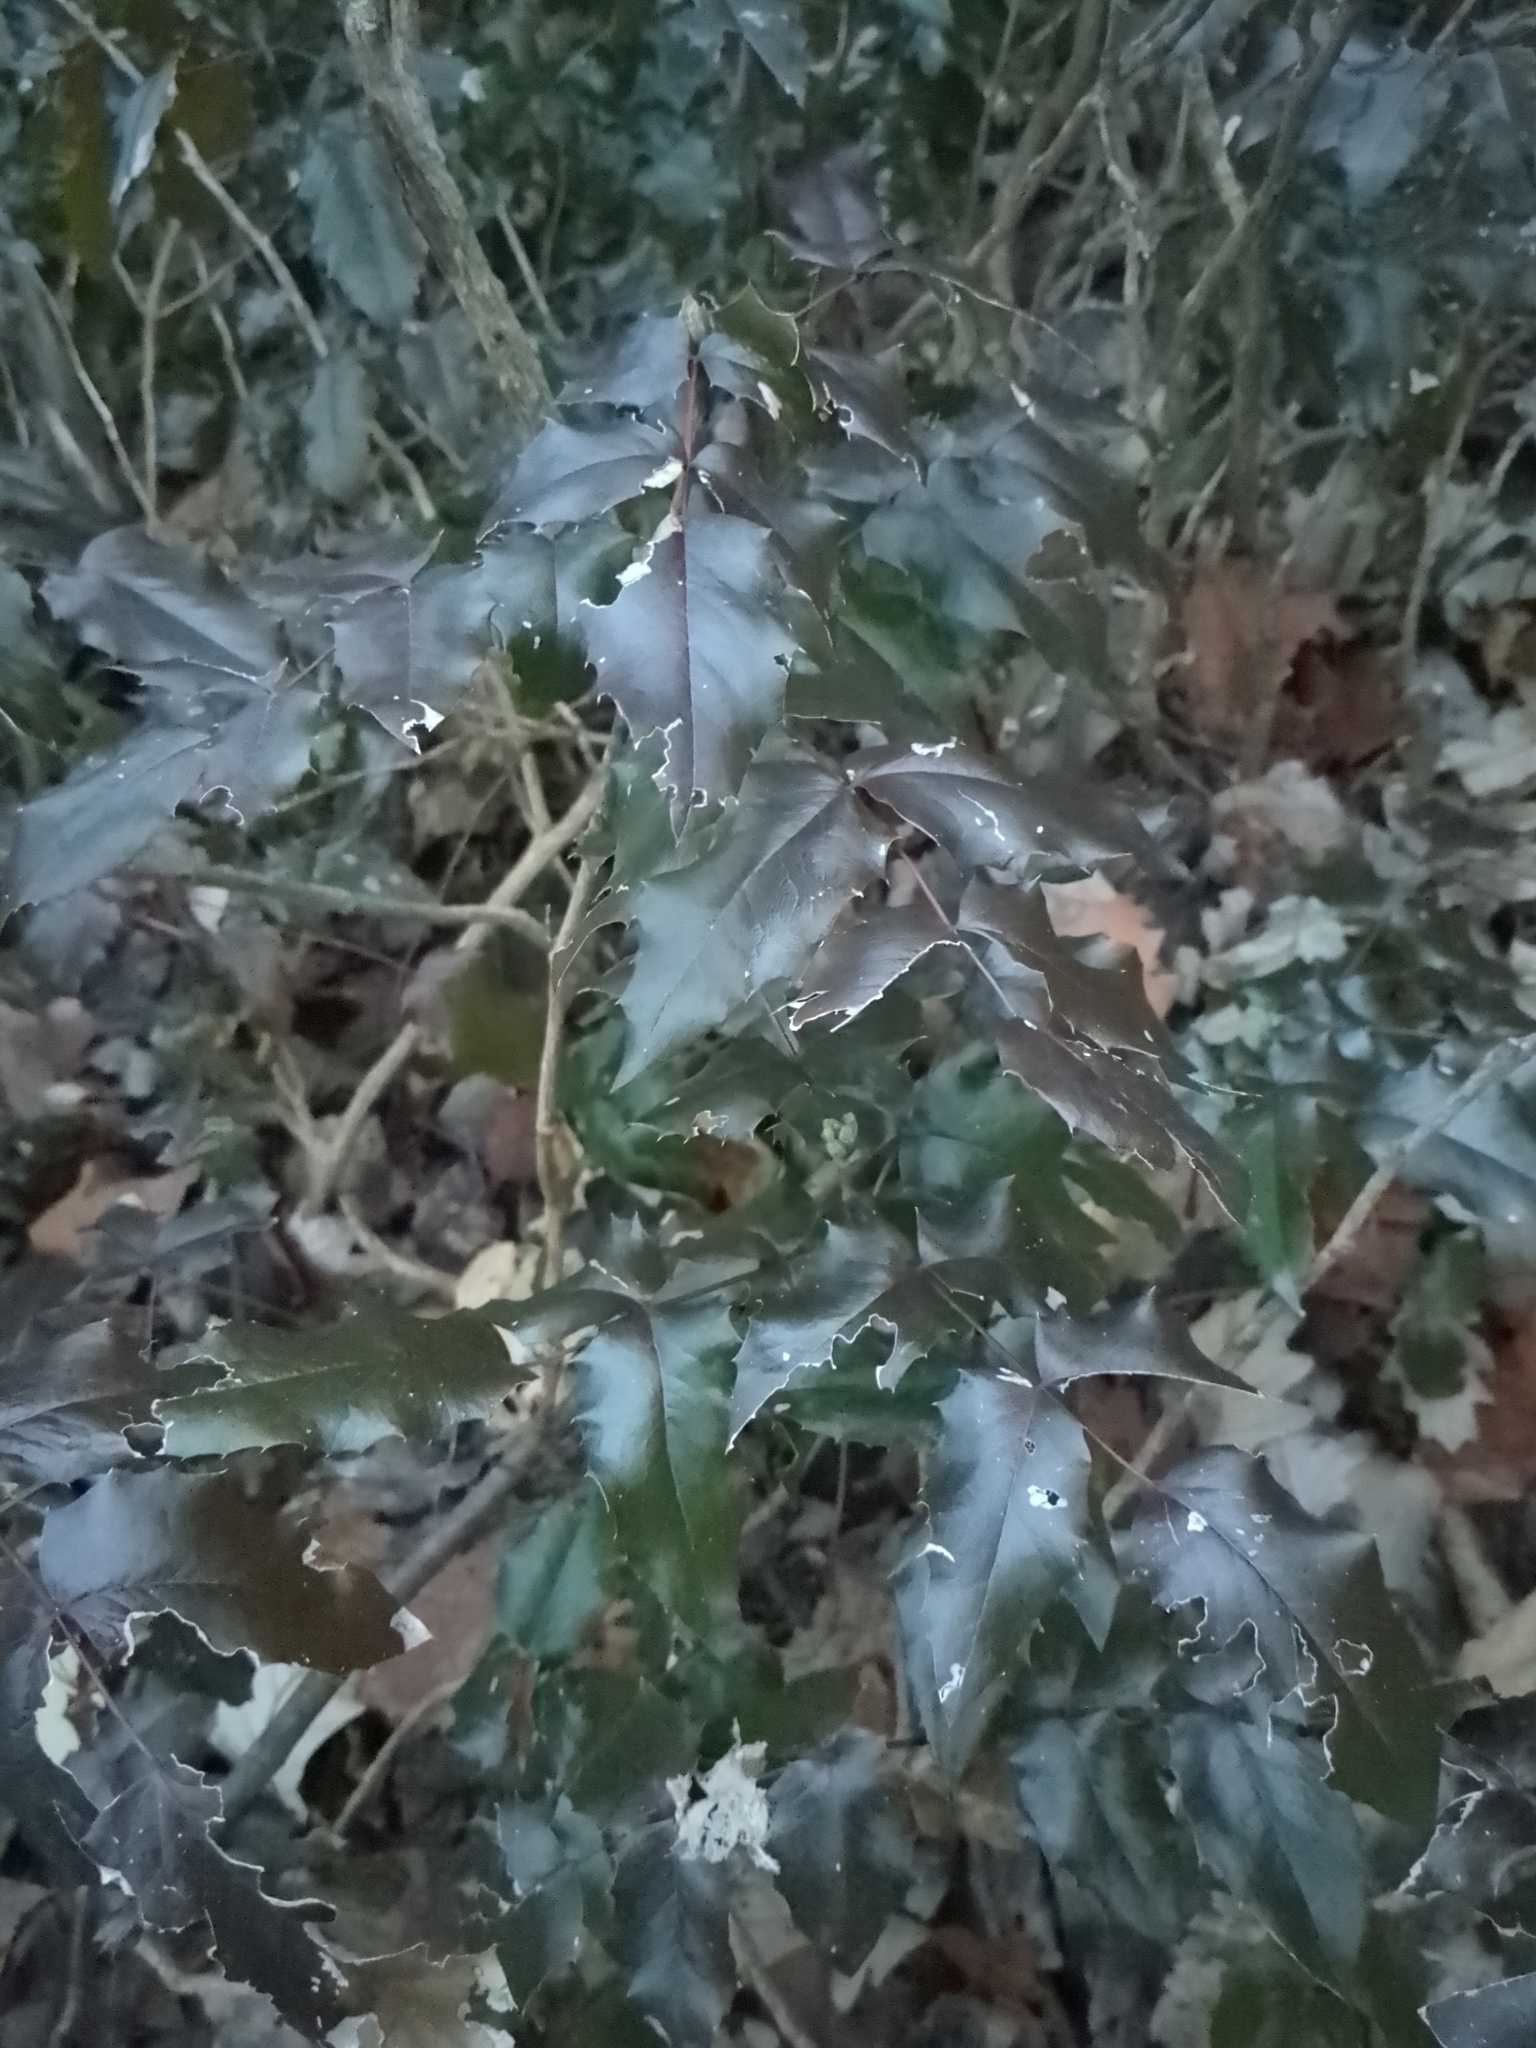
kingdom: Plantae
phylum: Tracheophyta
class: Magnoliopsida
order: Ranunculales
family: Berberidaceae
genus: Mahonia
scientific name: Mahonia aquifolium
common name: Oregon-grape
